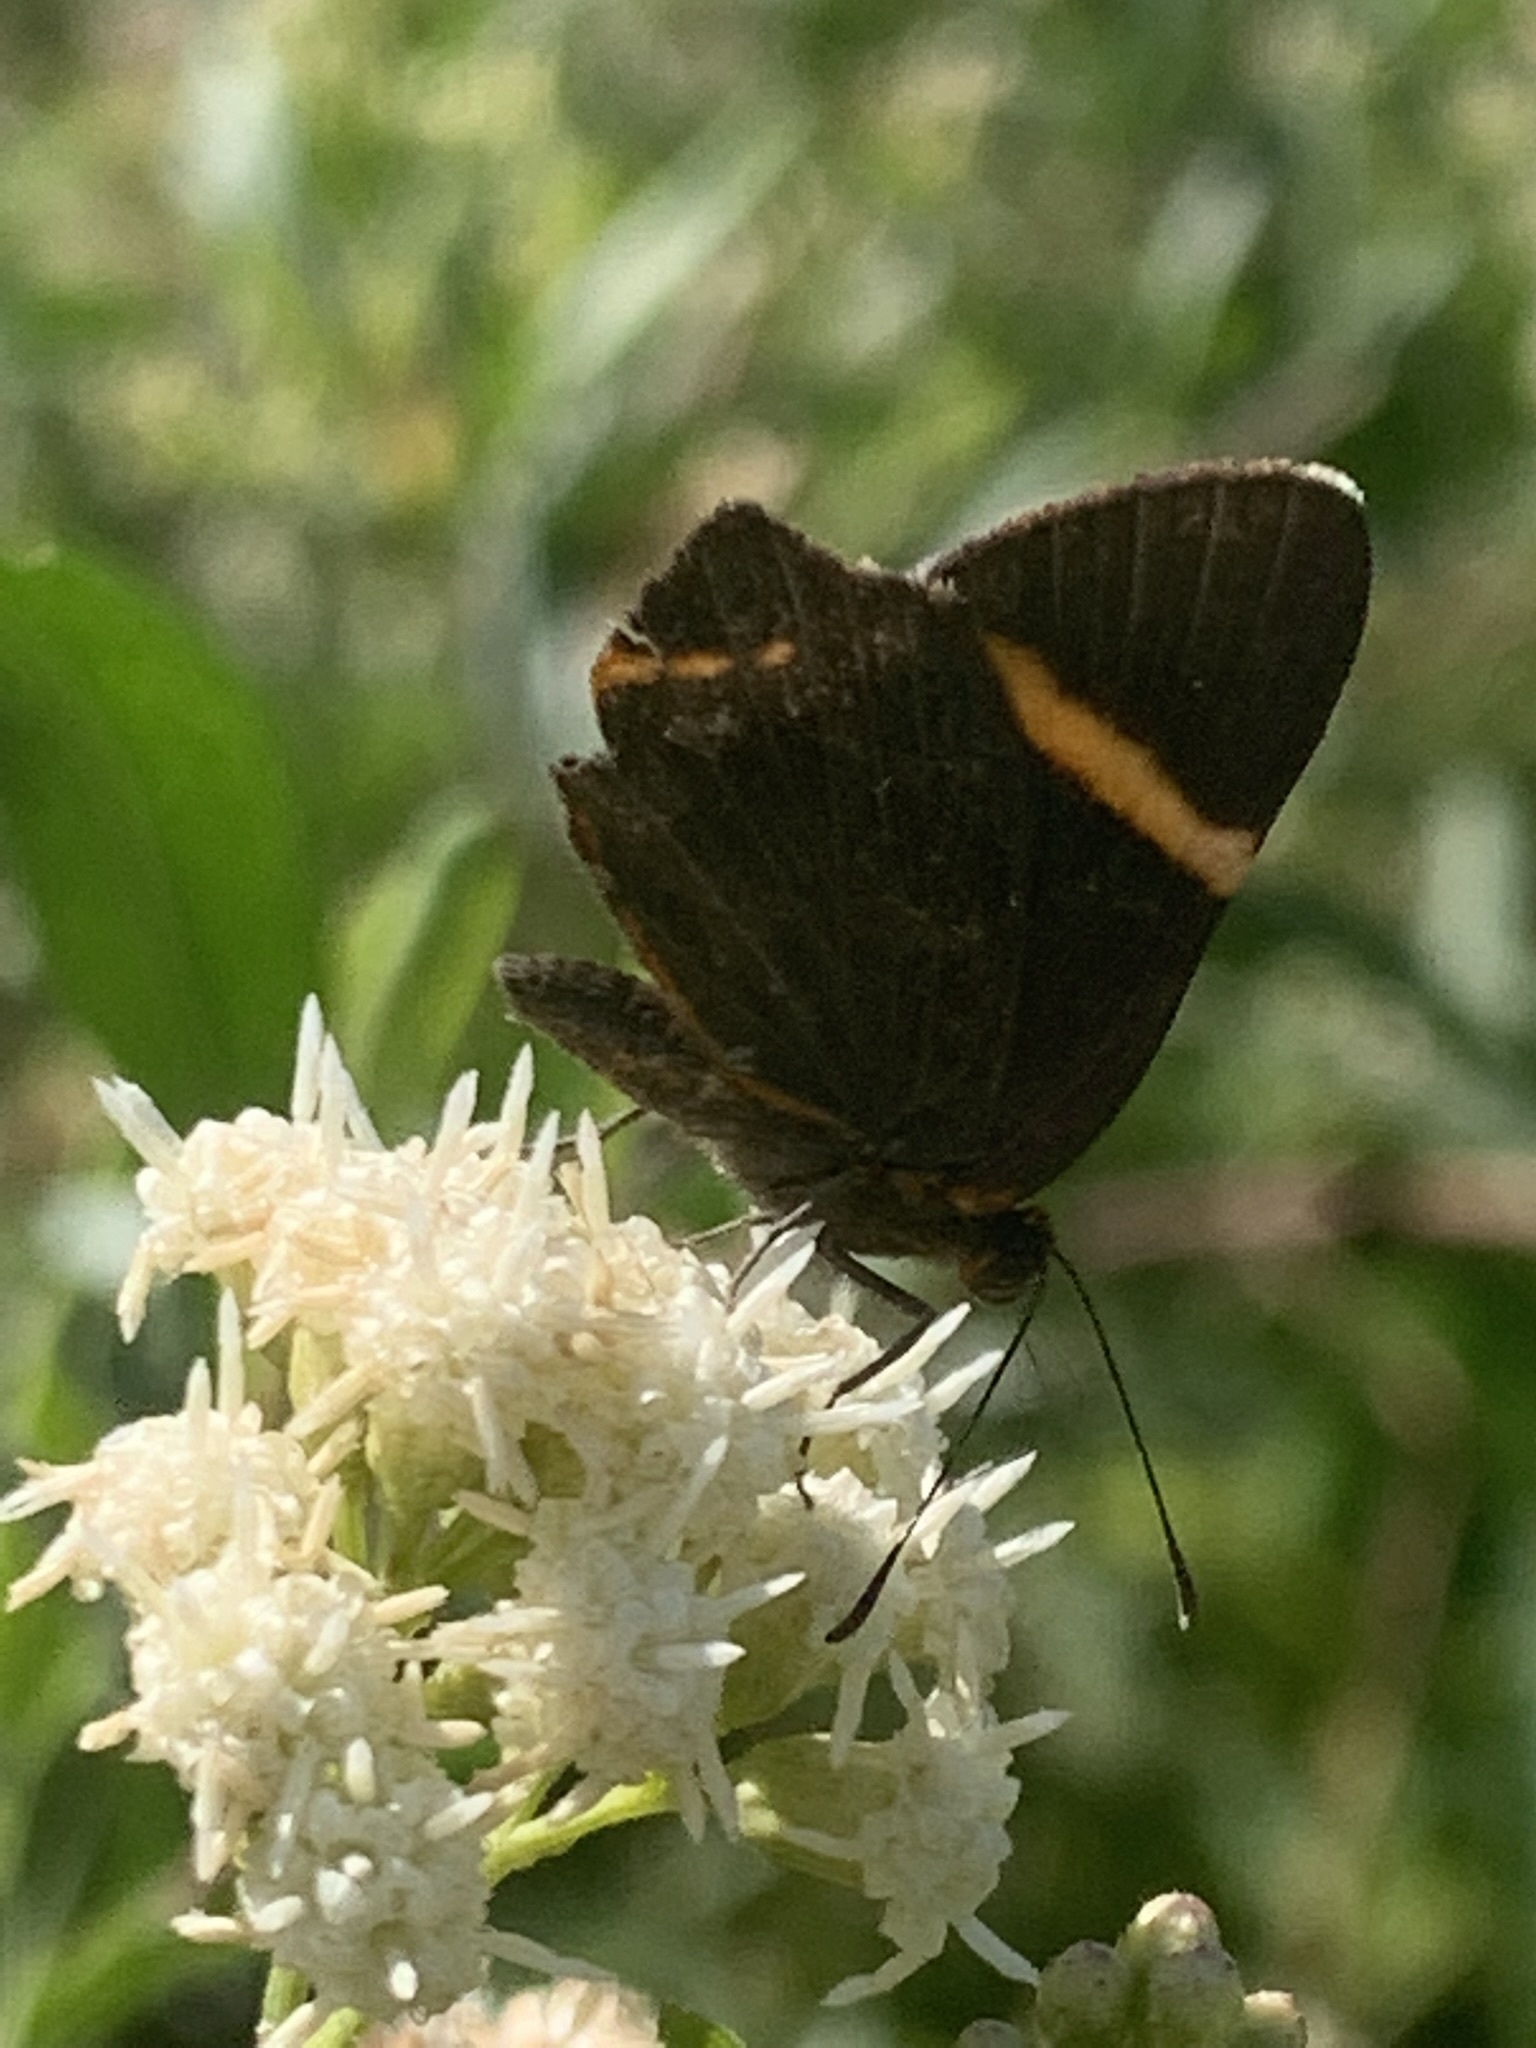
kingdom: Animalia
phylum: Arthropoda
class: Insecta
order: Lepidoptera
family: Riodinidae
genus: Riodina
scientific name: Riodina lysippoides
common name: Little dancer metalmark
